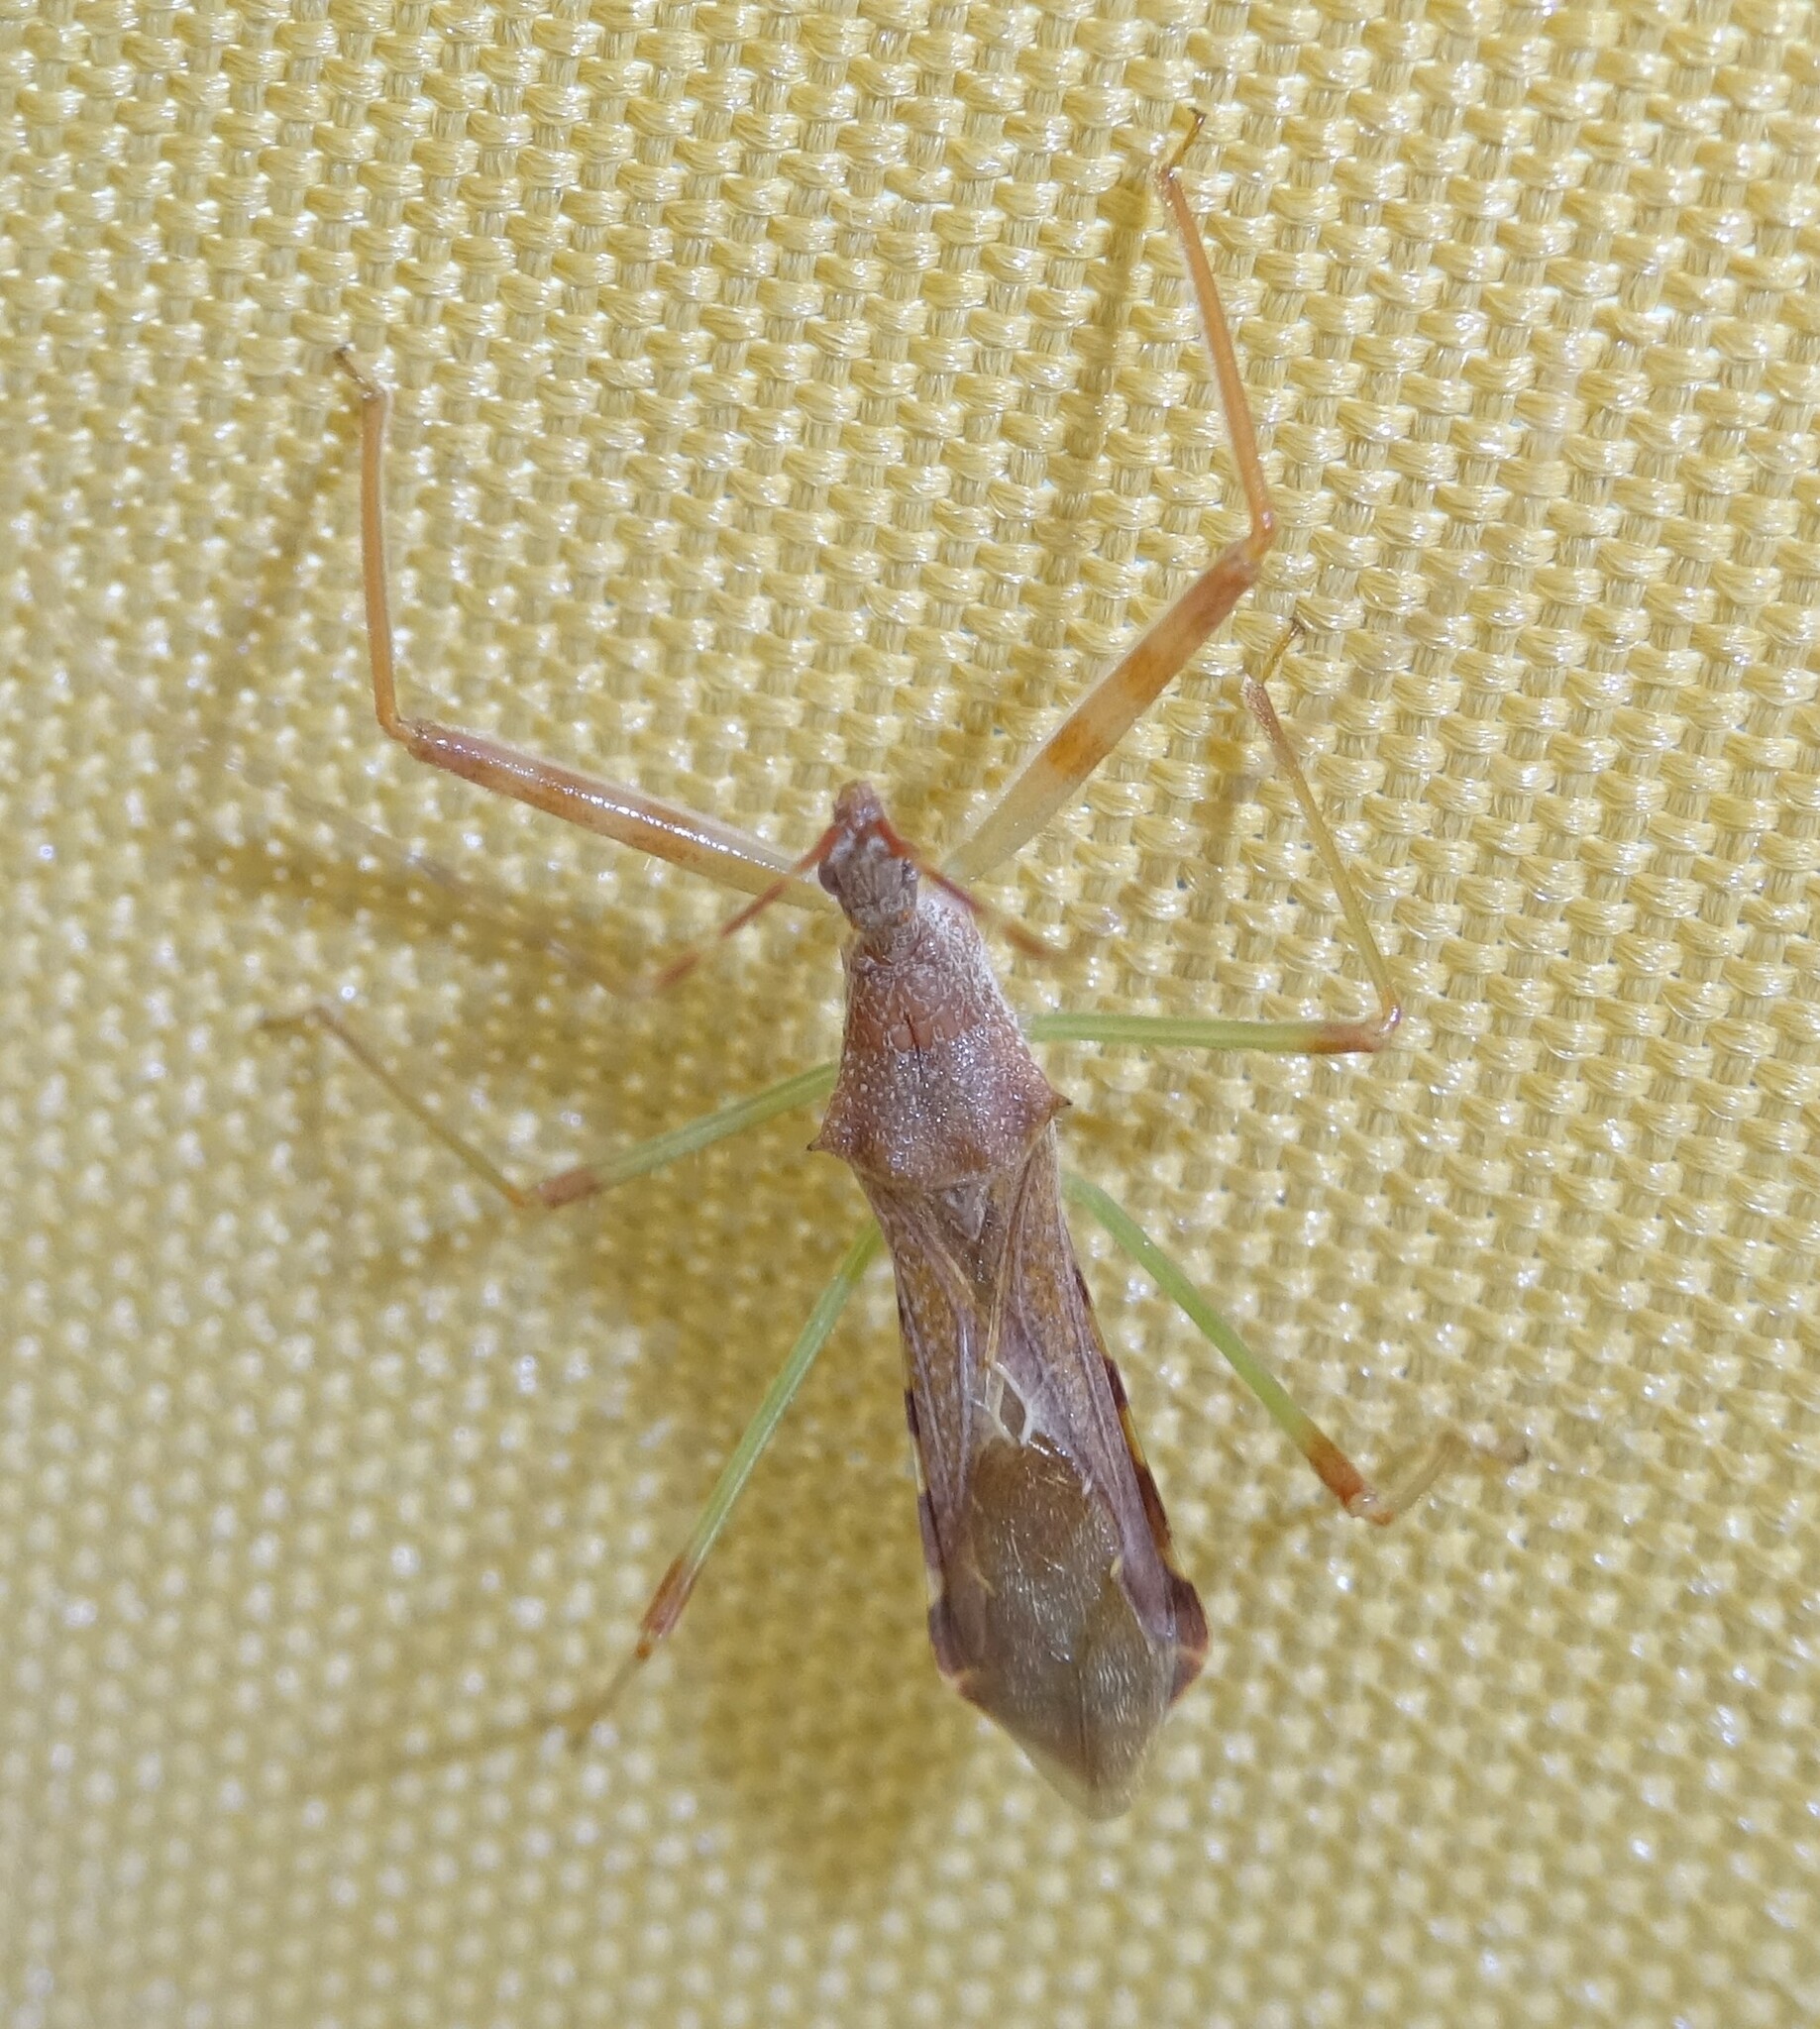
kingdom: Animalia
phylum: Arthropoda
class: Insecta
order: Hemiptera
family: Reduviidae
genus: Nagusta
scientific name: Nagusta goedelii
